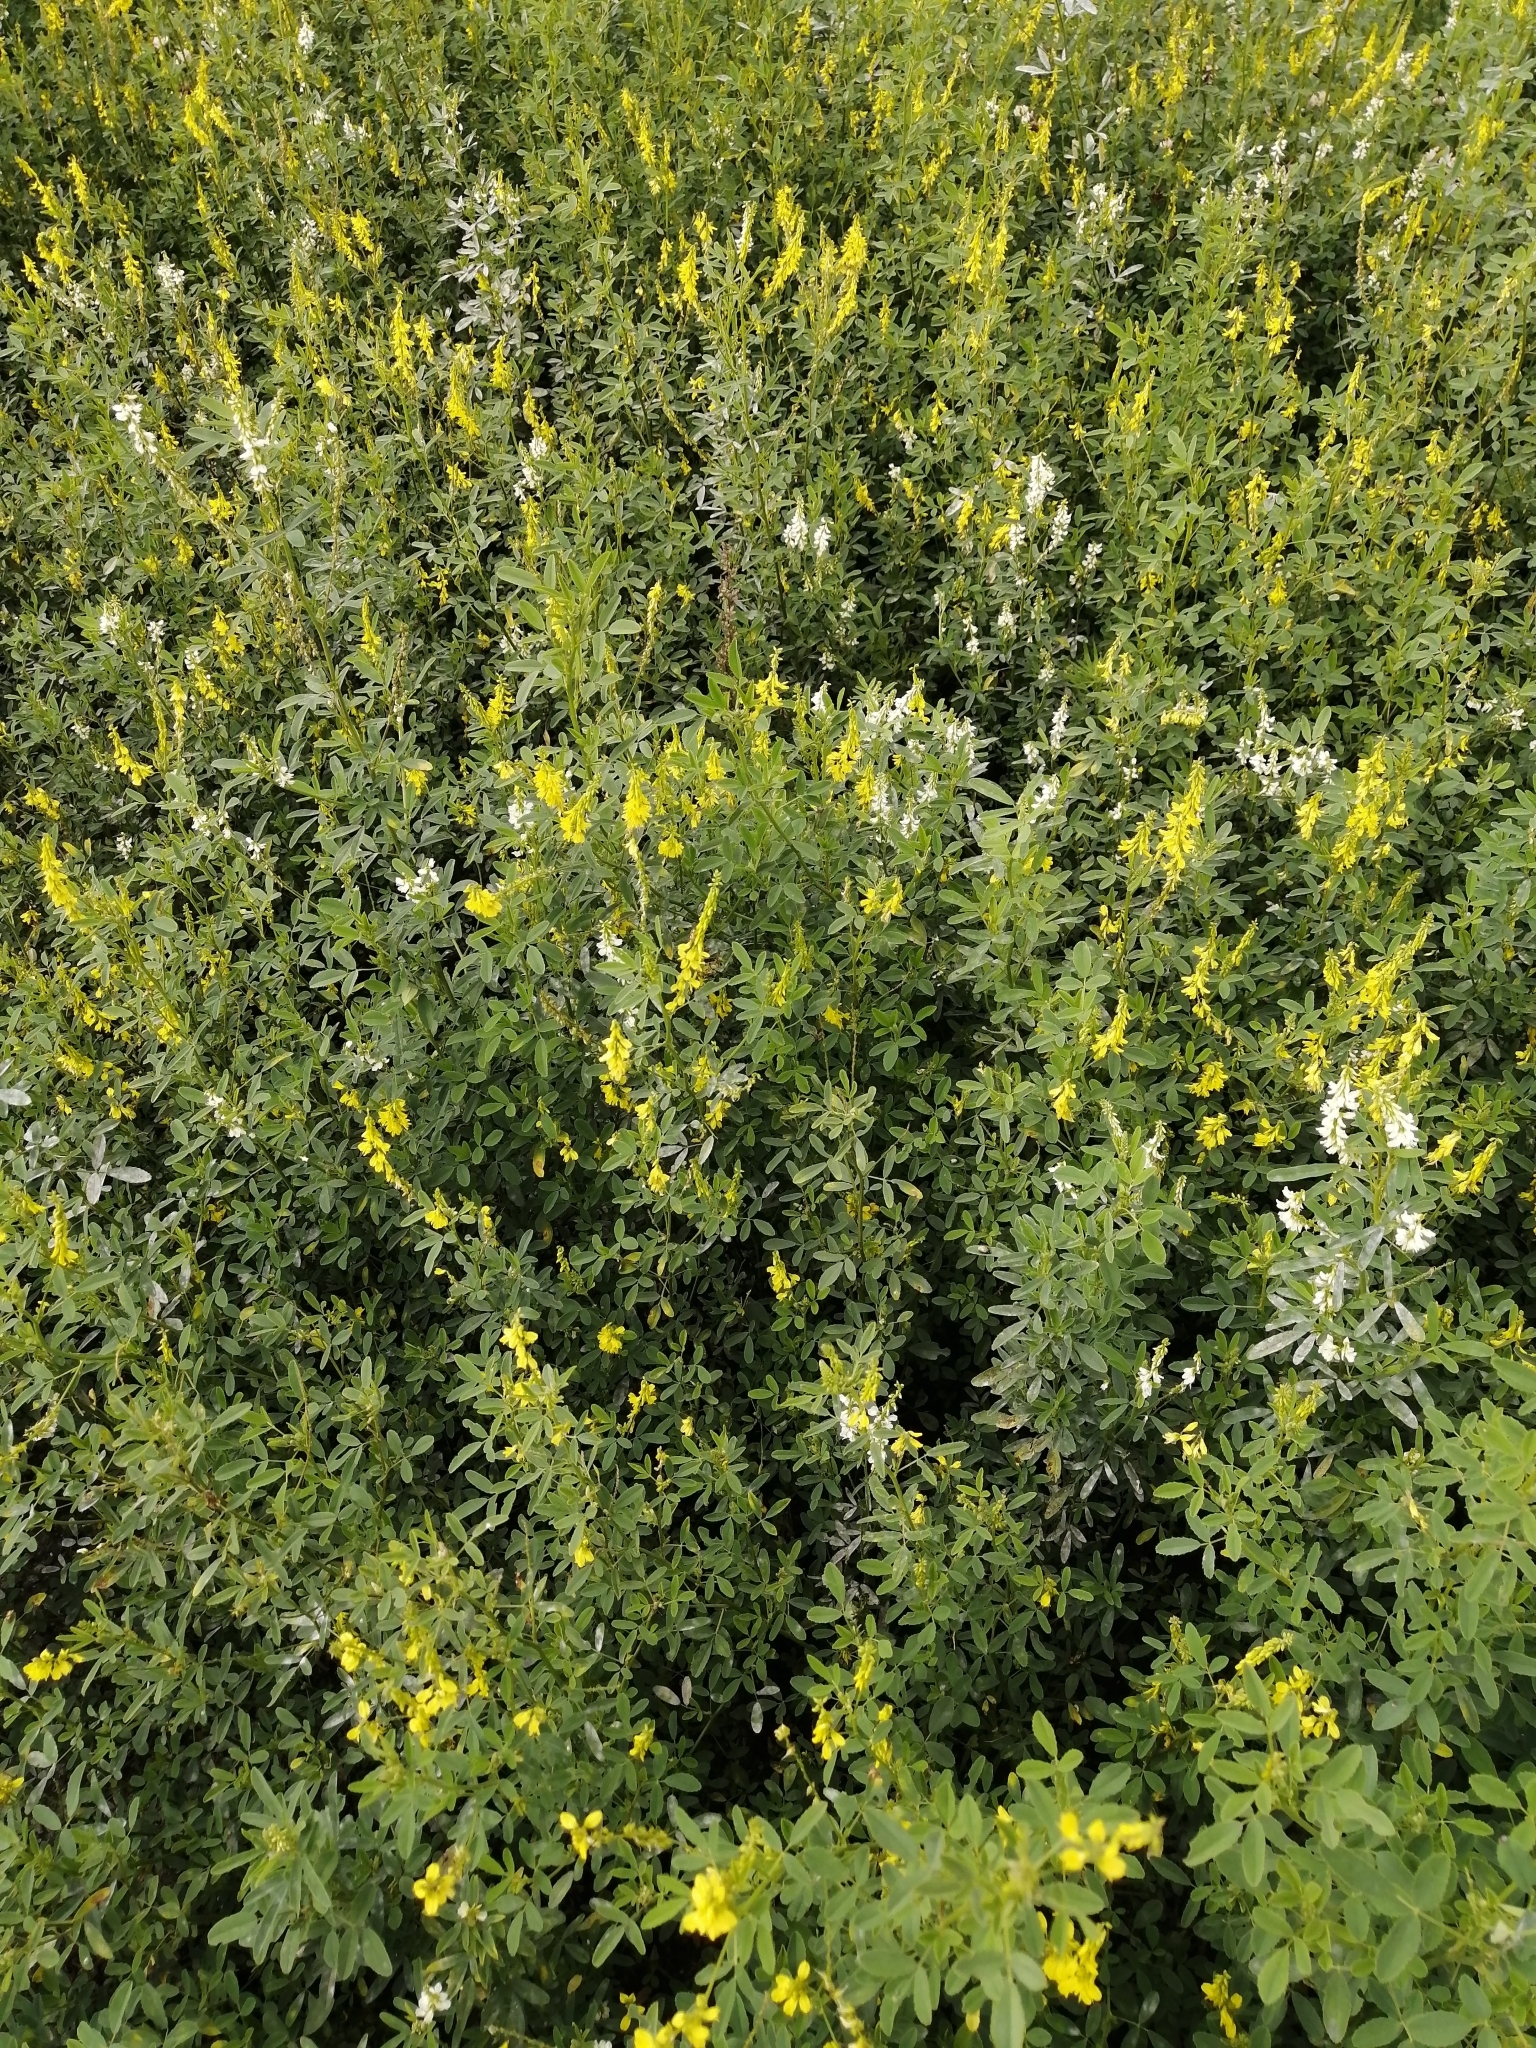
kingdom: Plantae
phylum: Tracheophyta
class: Magnoliopsida
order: Fabales
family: Fabaceae
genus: Melilotus
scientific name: Melilotus officinalis
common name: Sweetclover
